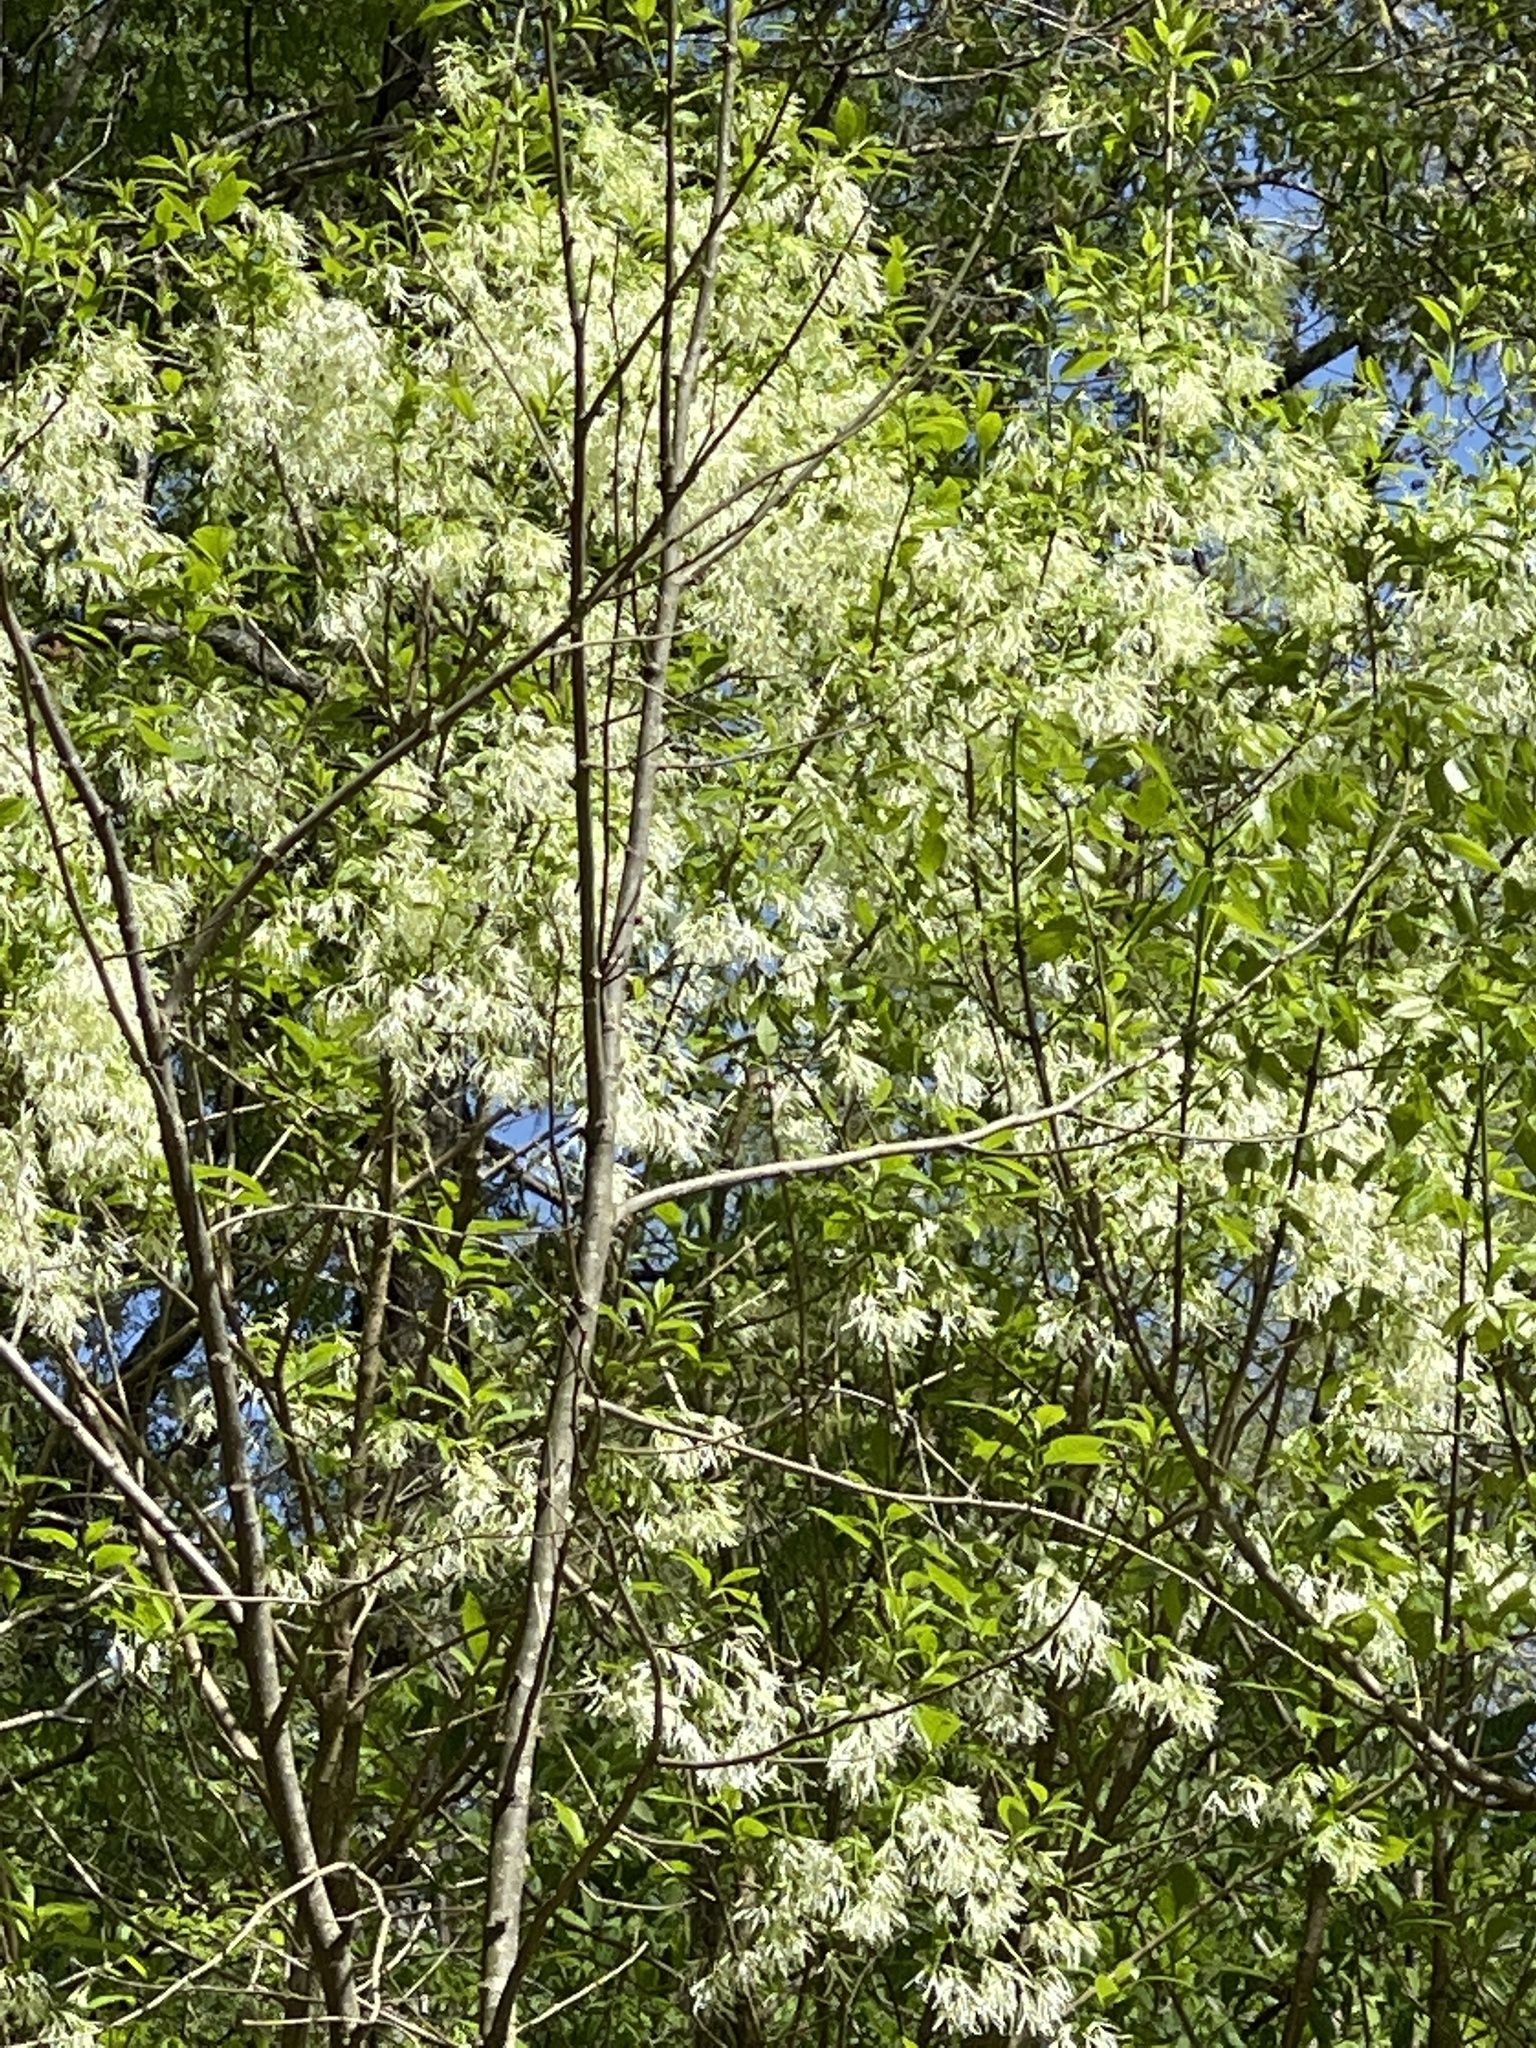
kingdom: Plantae
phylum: Tracheophyta
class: Magnoliopsida
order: Lamiales
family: Oleaceae
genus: Chionanthus
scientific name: Chionanthus virginicus
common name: American fringetree
